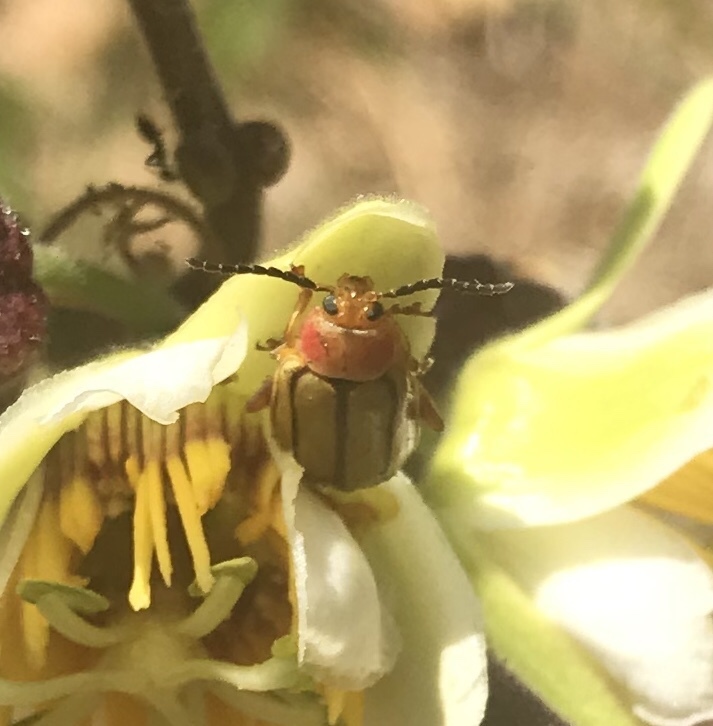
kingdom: Animalia
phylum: Arthropoda
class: Insecta
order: Coleoptera
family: Chrysomelidae
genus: Disonycha
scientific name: Disonycha stenosticha
